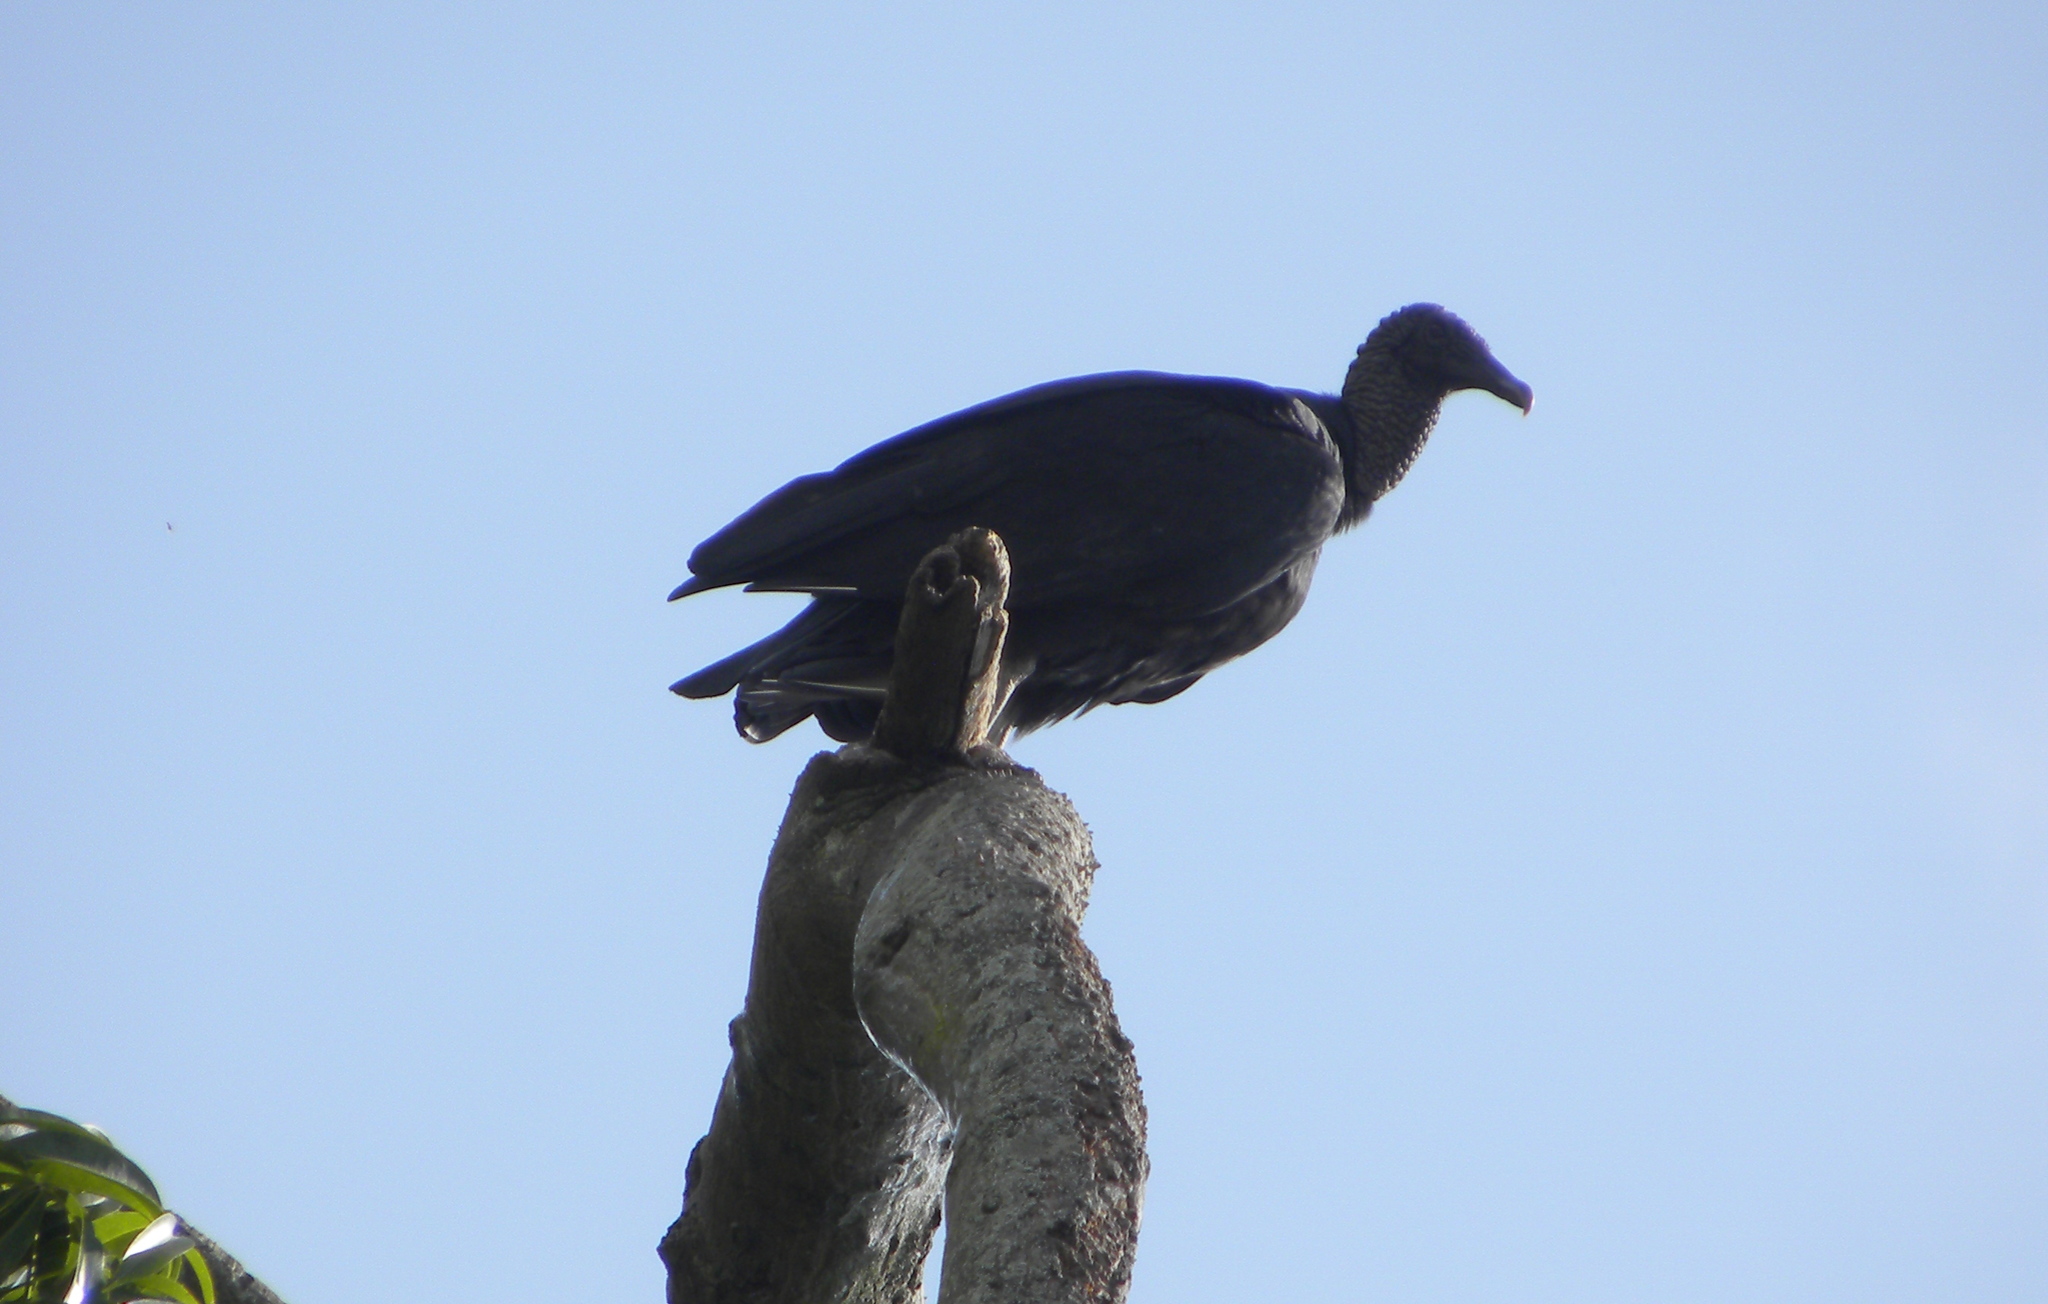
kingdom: Animalia
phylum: Chordata
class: Aves
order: Accipitriformes
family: Cathartidae
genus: Coragyps
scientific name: Coragyps atratus
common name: Black vulture
